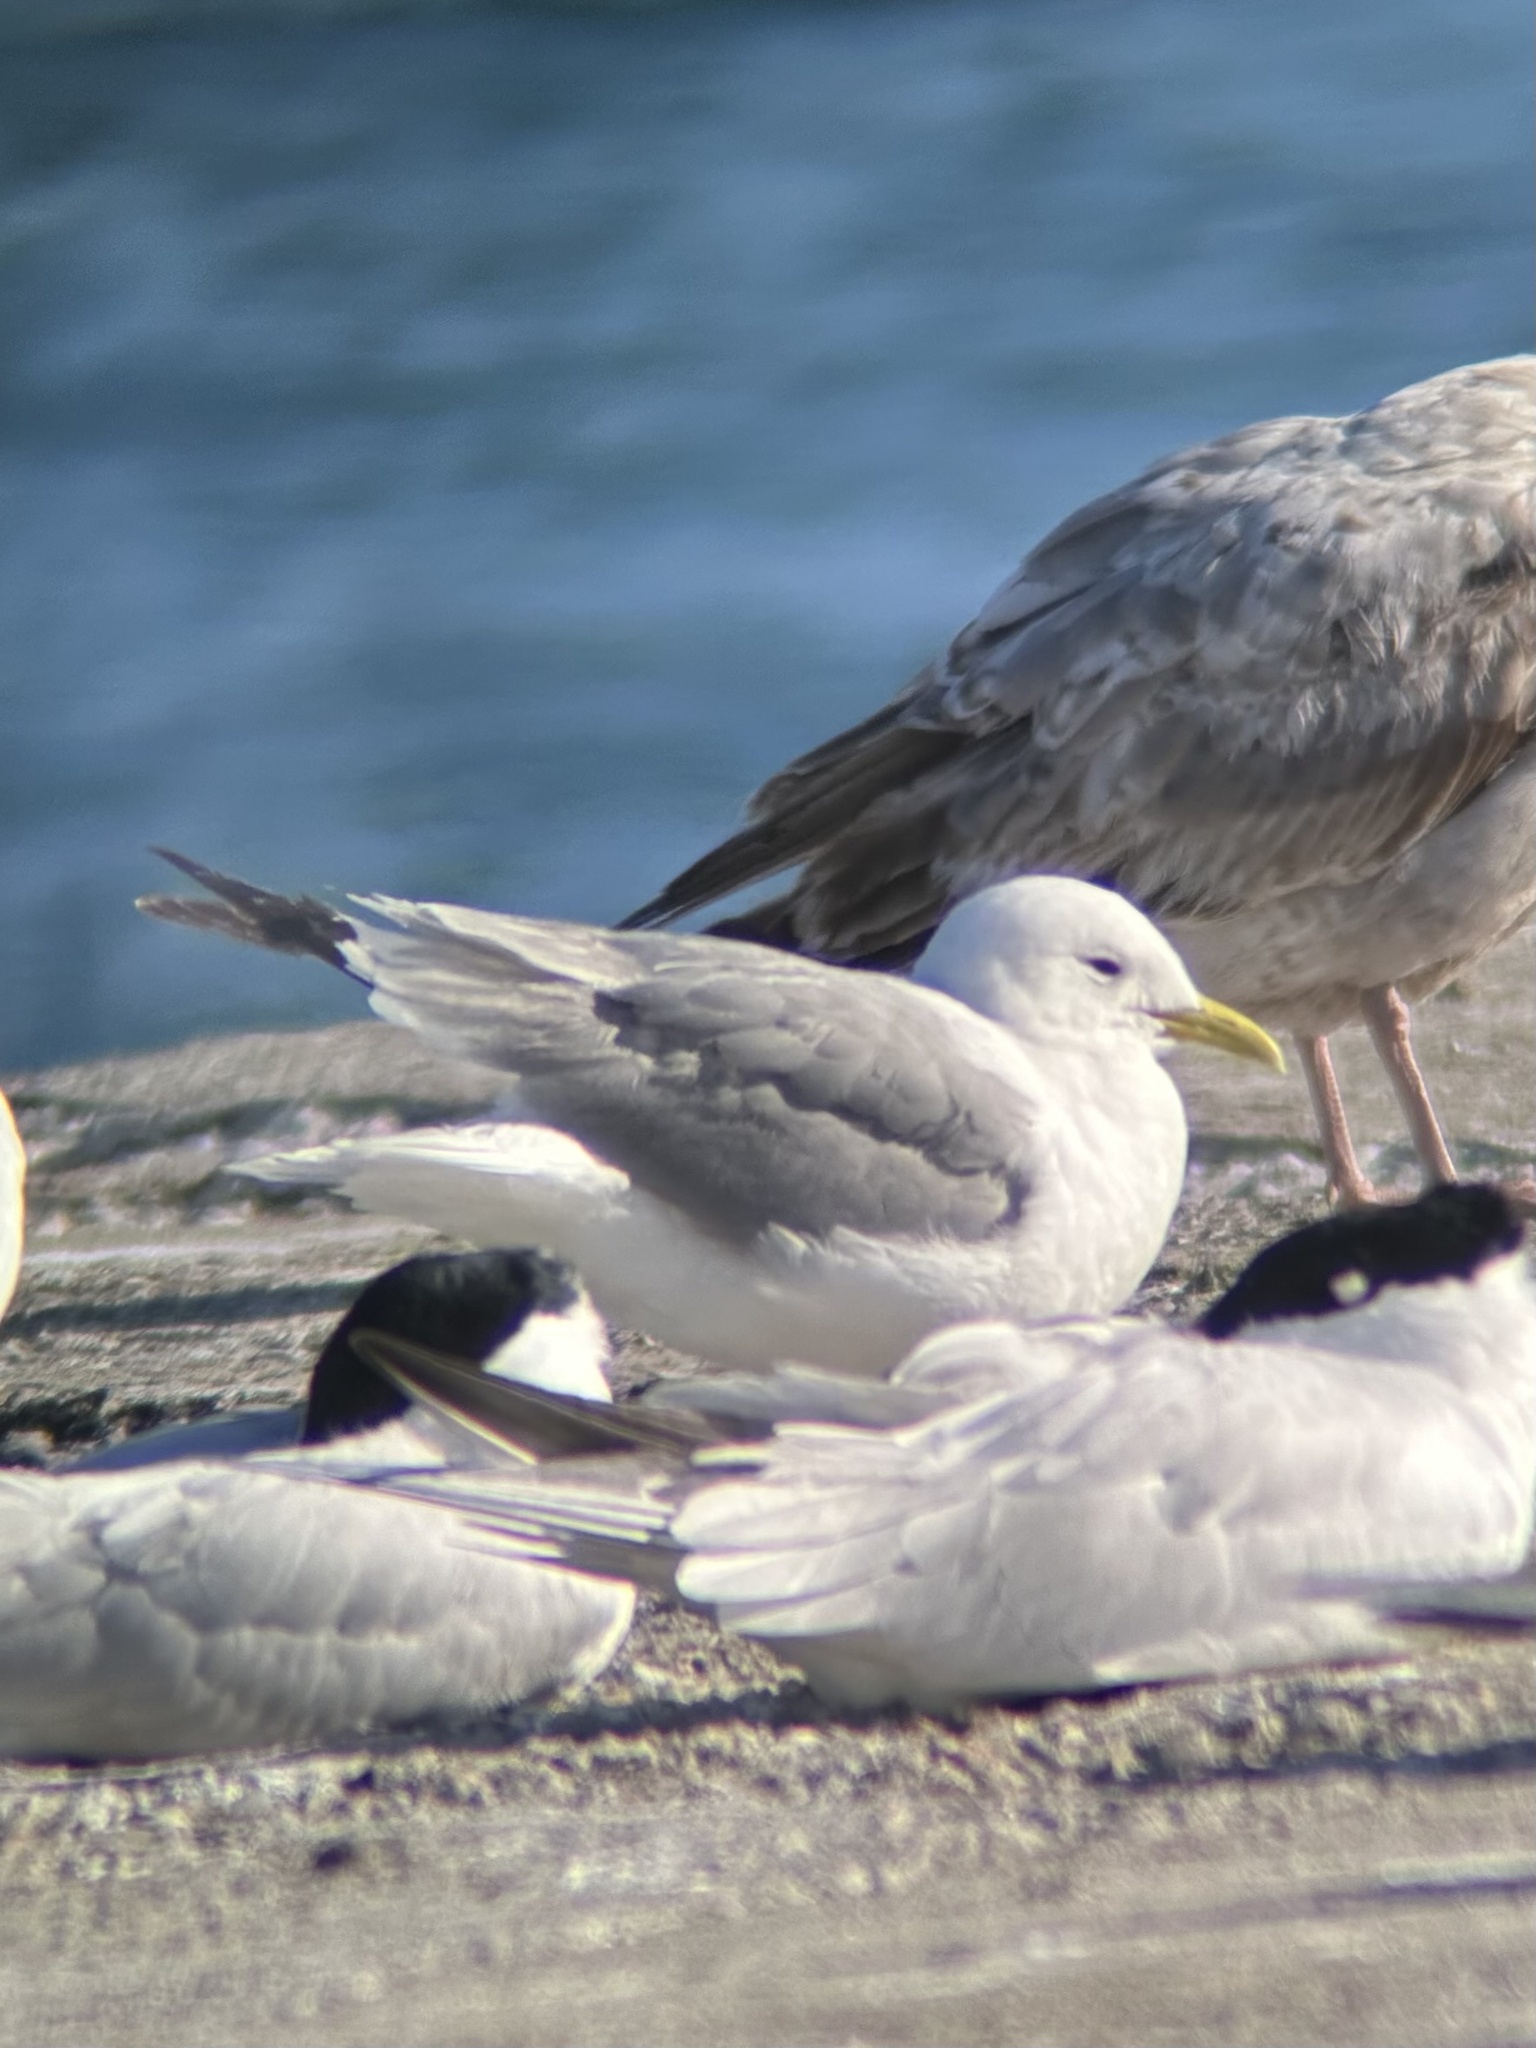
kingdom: Animalia
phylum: Chordata
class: Aves
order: Charadriiformes
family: Laridae
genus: Rissa
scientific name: Rissa tridactyla
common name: Black-legged kittiwake
